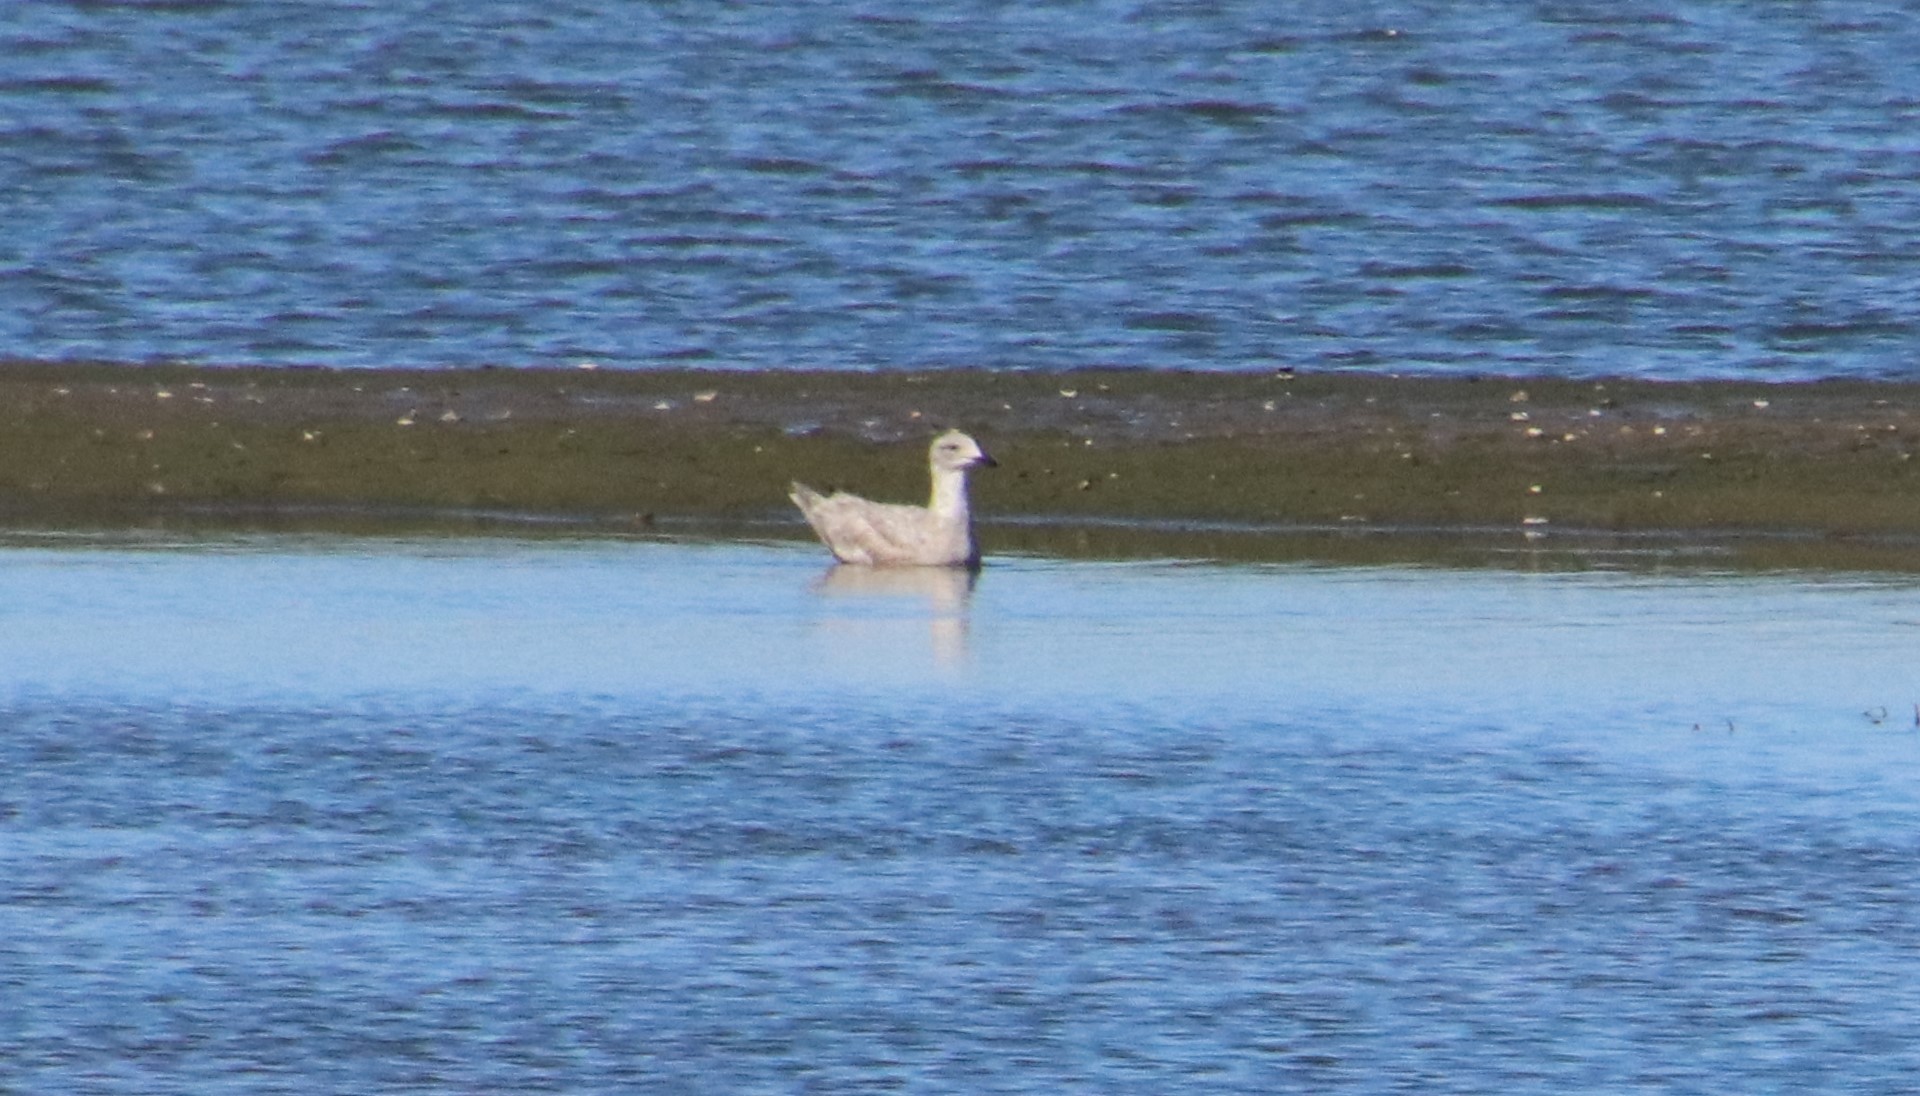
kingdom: Animalia
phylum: Chordata
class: Aves
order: Charadriiformes
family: Laridae
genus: Larus
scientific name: Larus glaucescens
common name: Glaucous-winged gull
